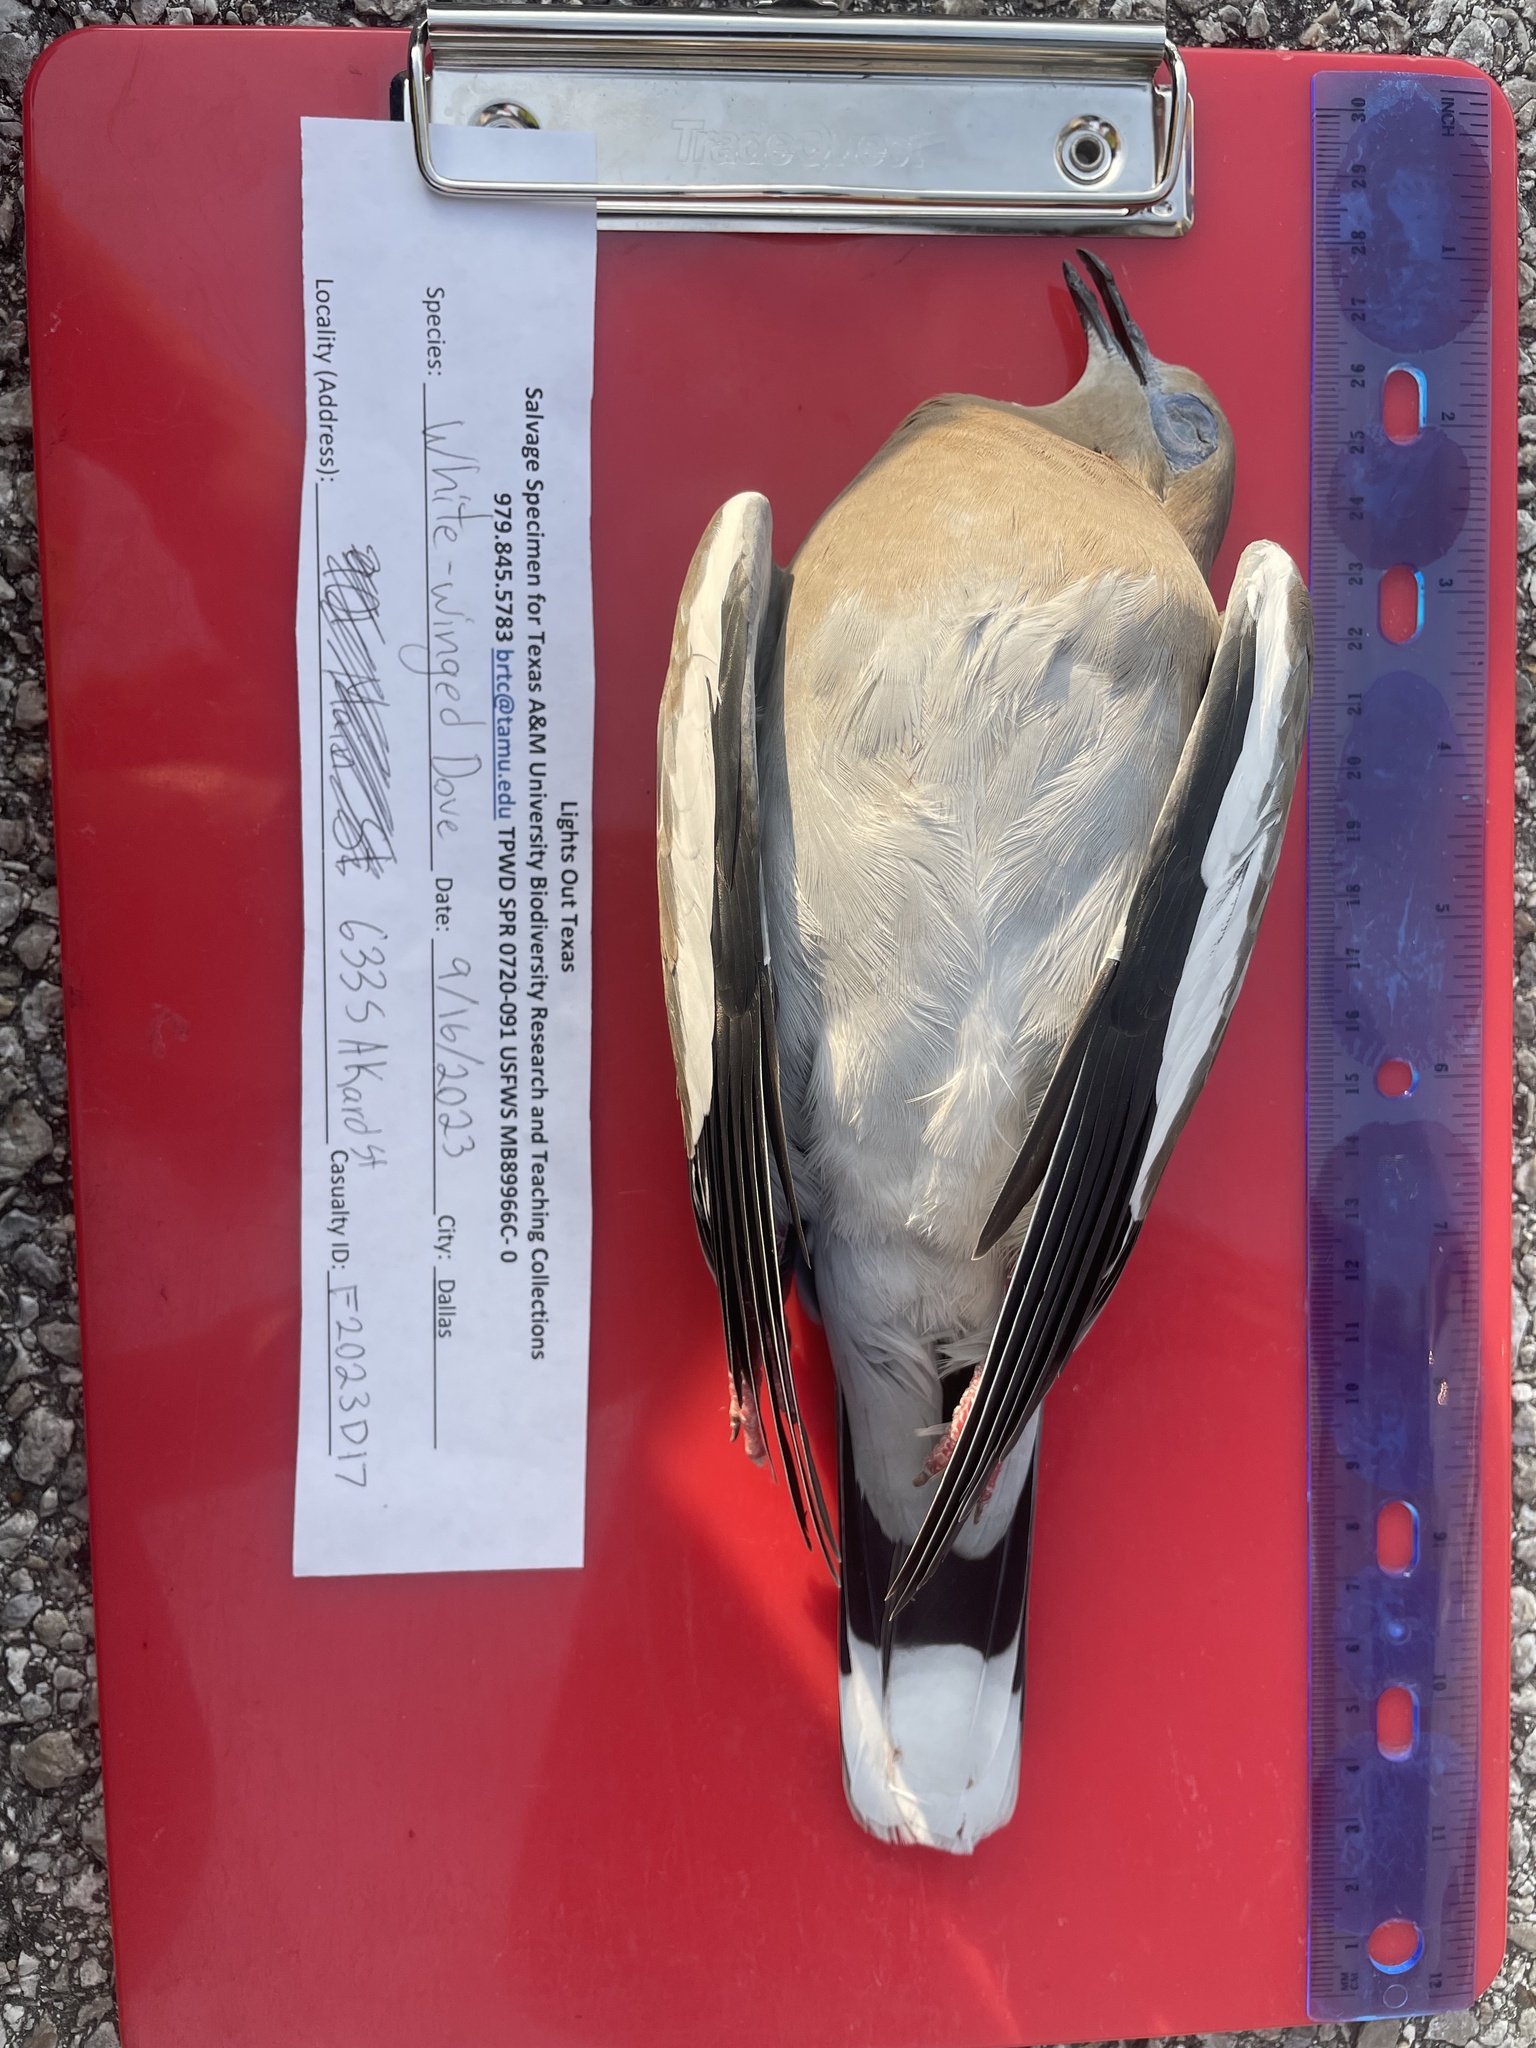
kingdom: Animalia
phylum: Chordata
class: Aves
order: Columbiformes
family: Columbidae
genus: Zenaida
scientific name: Zenaida asiatica
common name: White-winged dove
